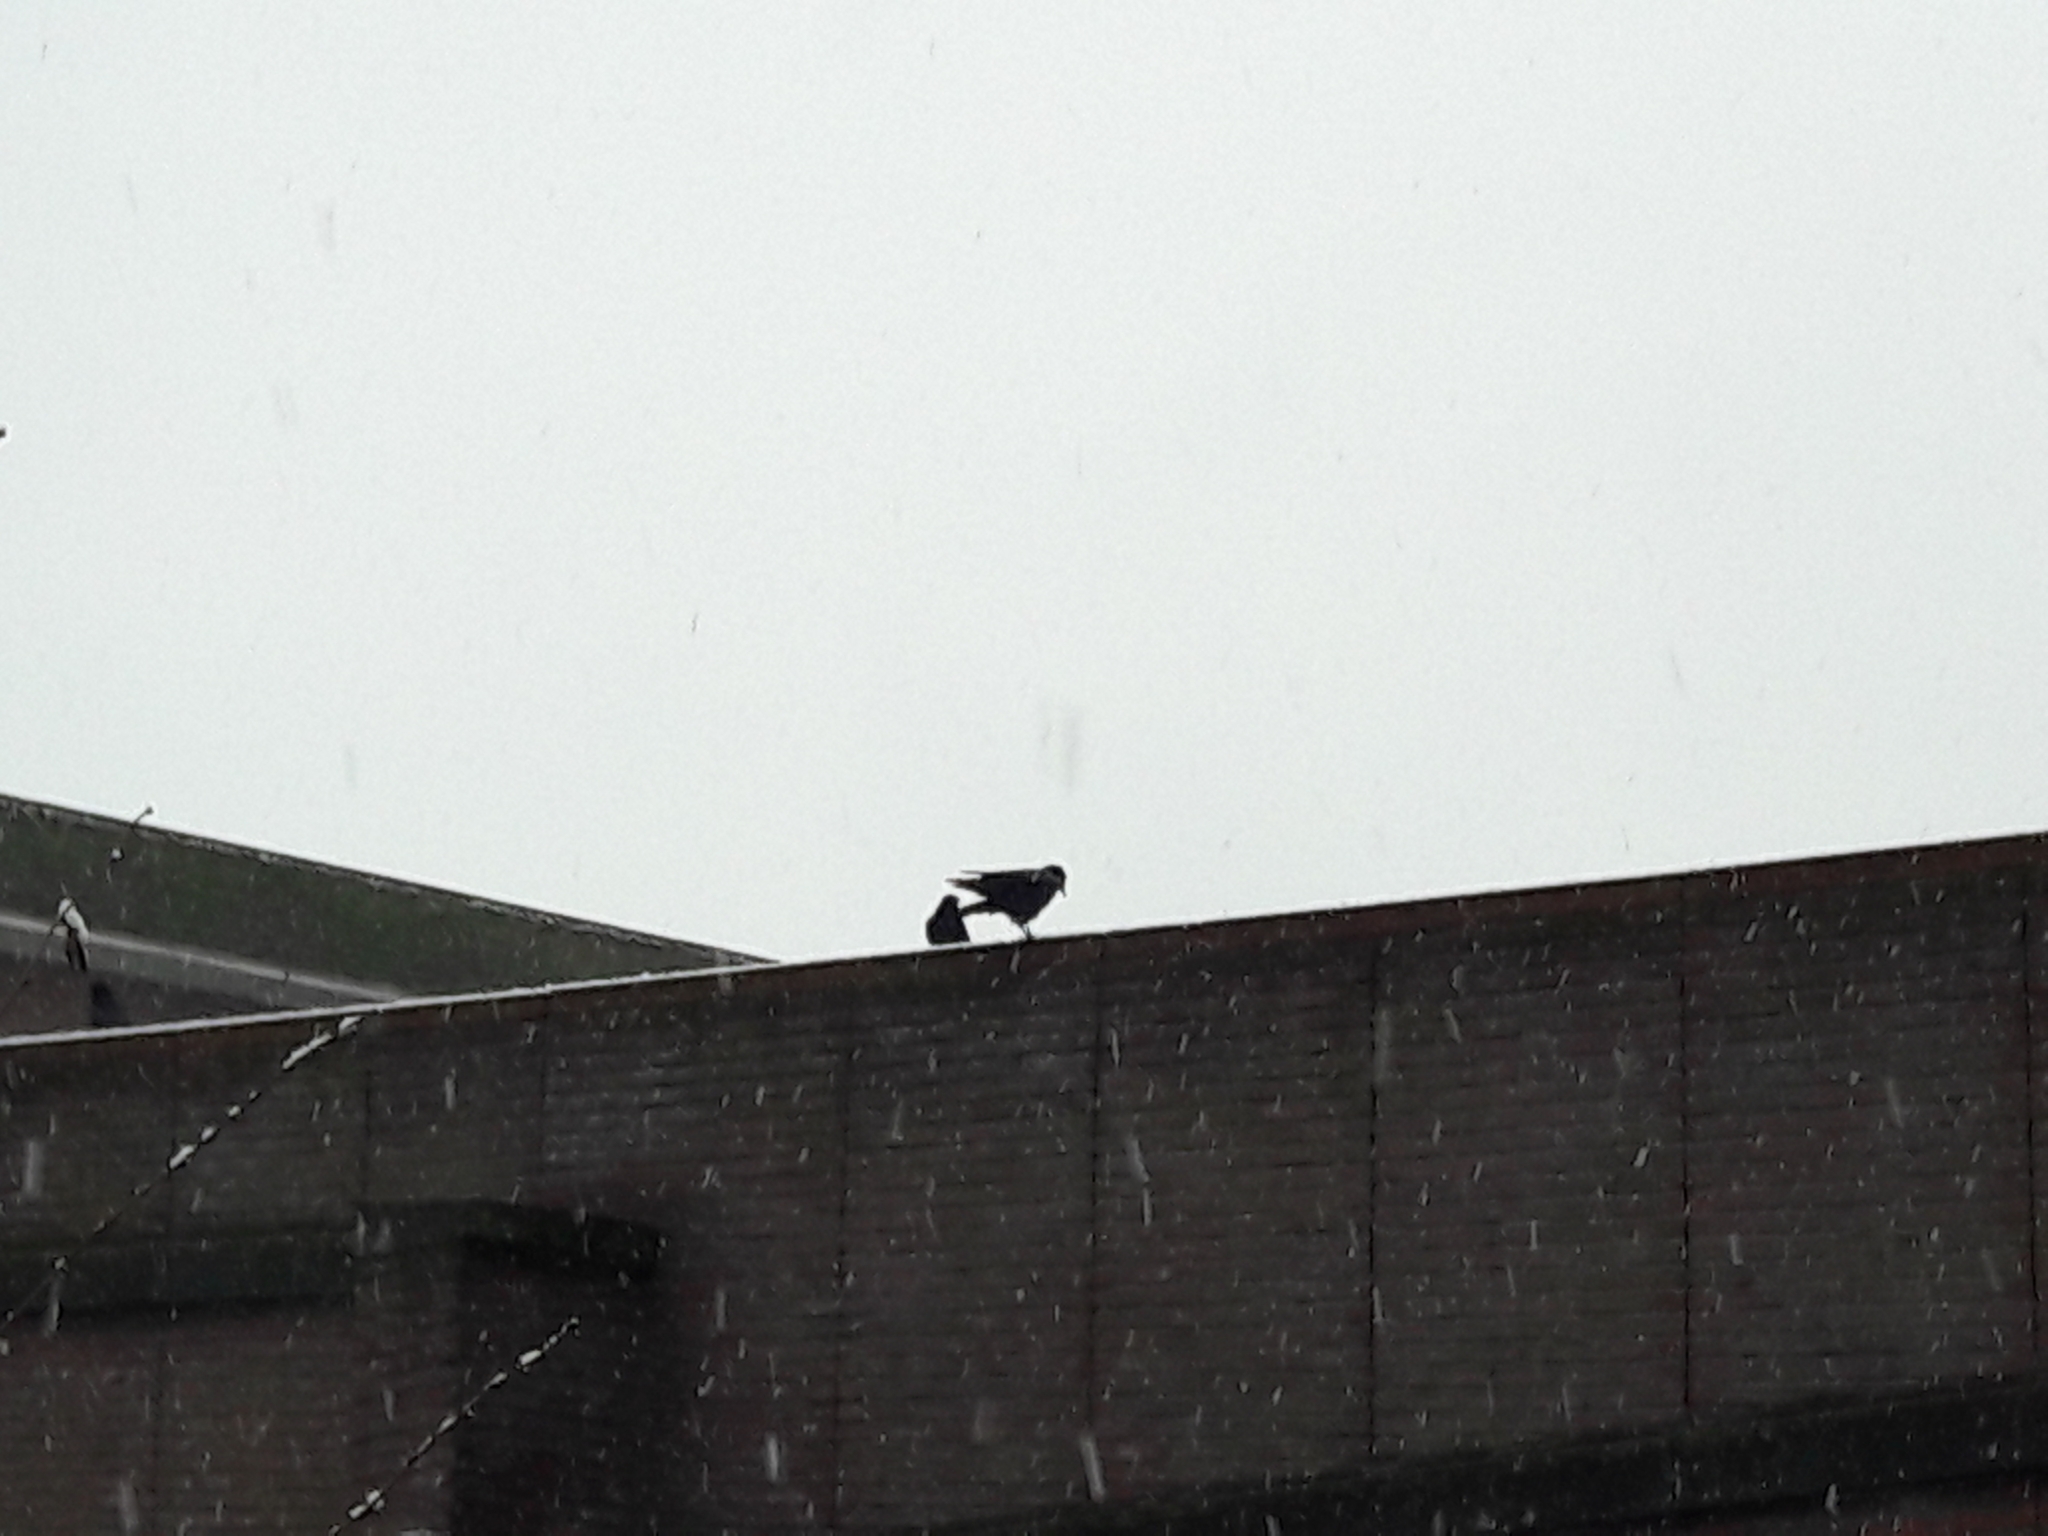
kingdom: Animalia
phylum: Chordata
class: Aves
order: Passeriformes
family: Corvidae
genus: Corvus
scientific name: Corvus corone
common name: Carrion crow
